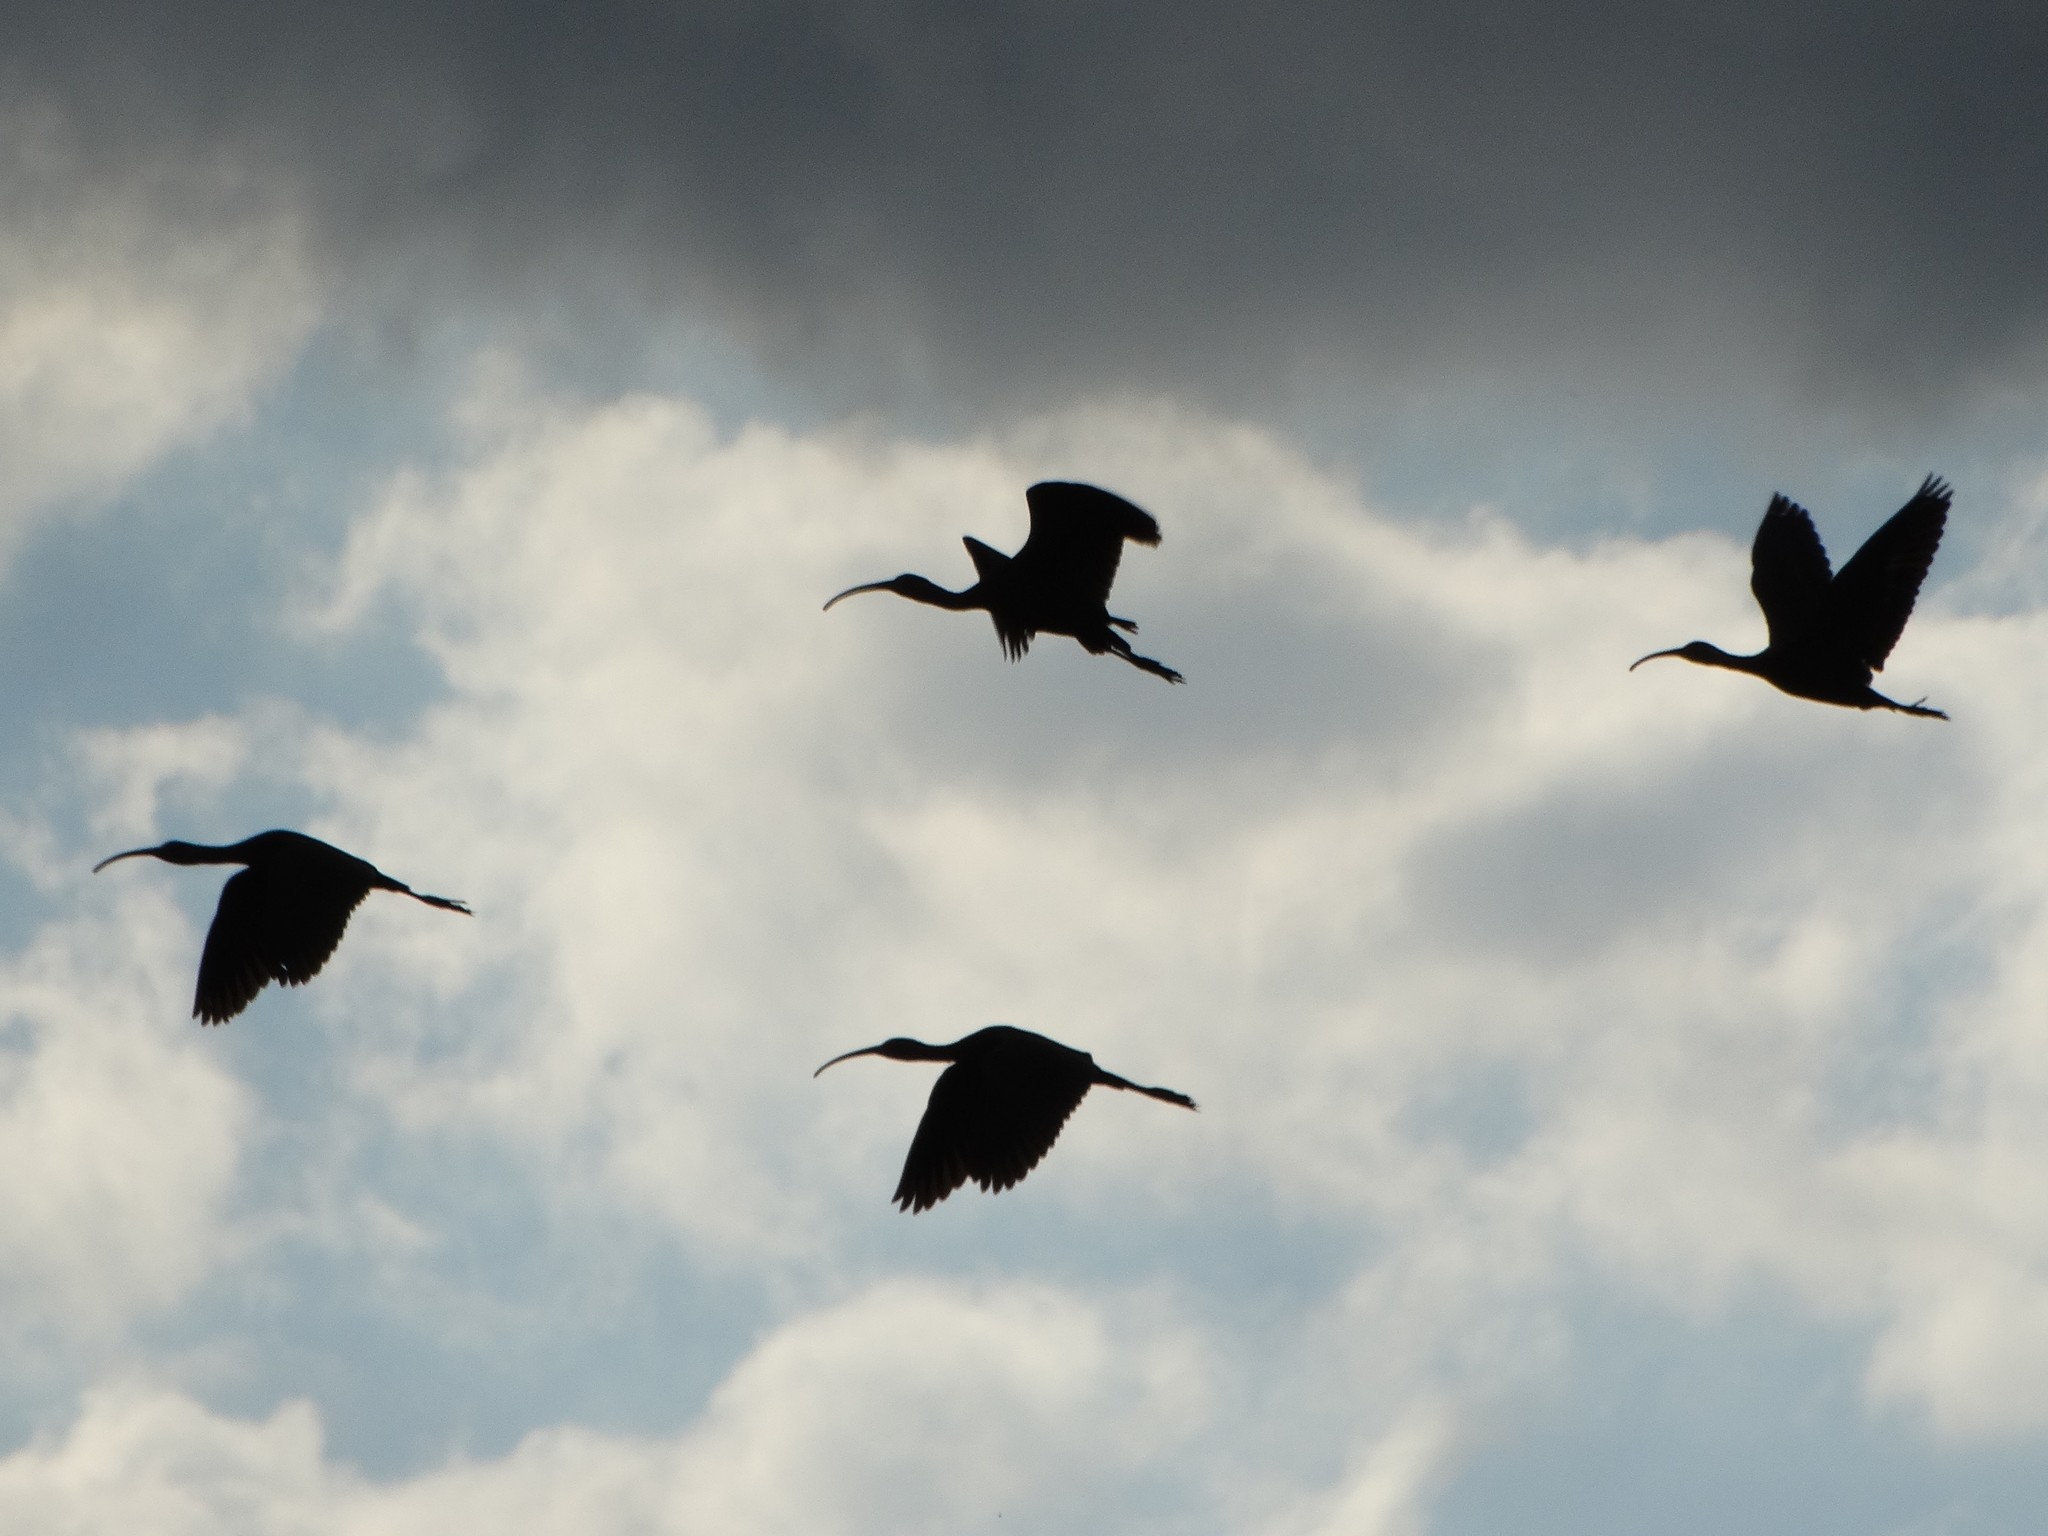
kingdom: Animalia
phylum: Chordata
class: Aves
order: Pelecaniformes
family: Threskiornithidae
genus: Plegadis
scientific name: Plegadis chihi
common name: White-faced ibis
